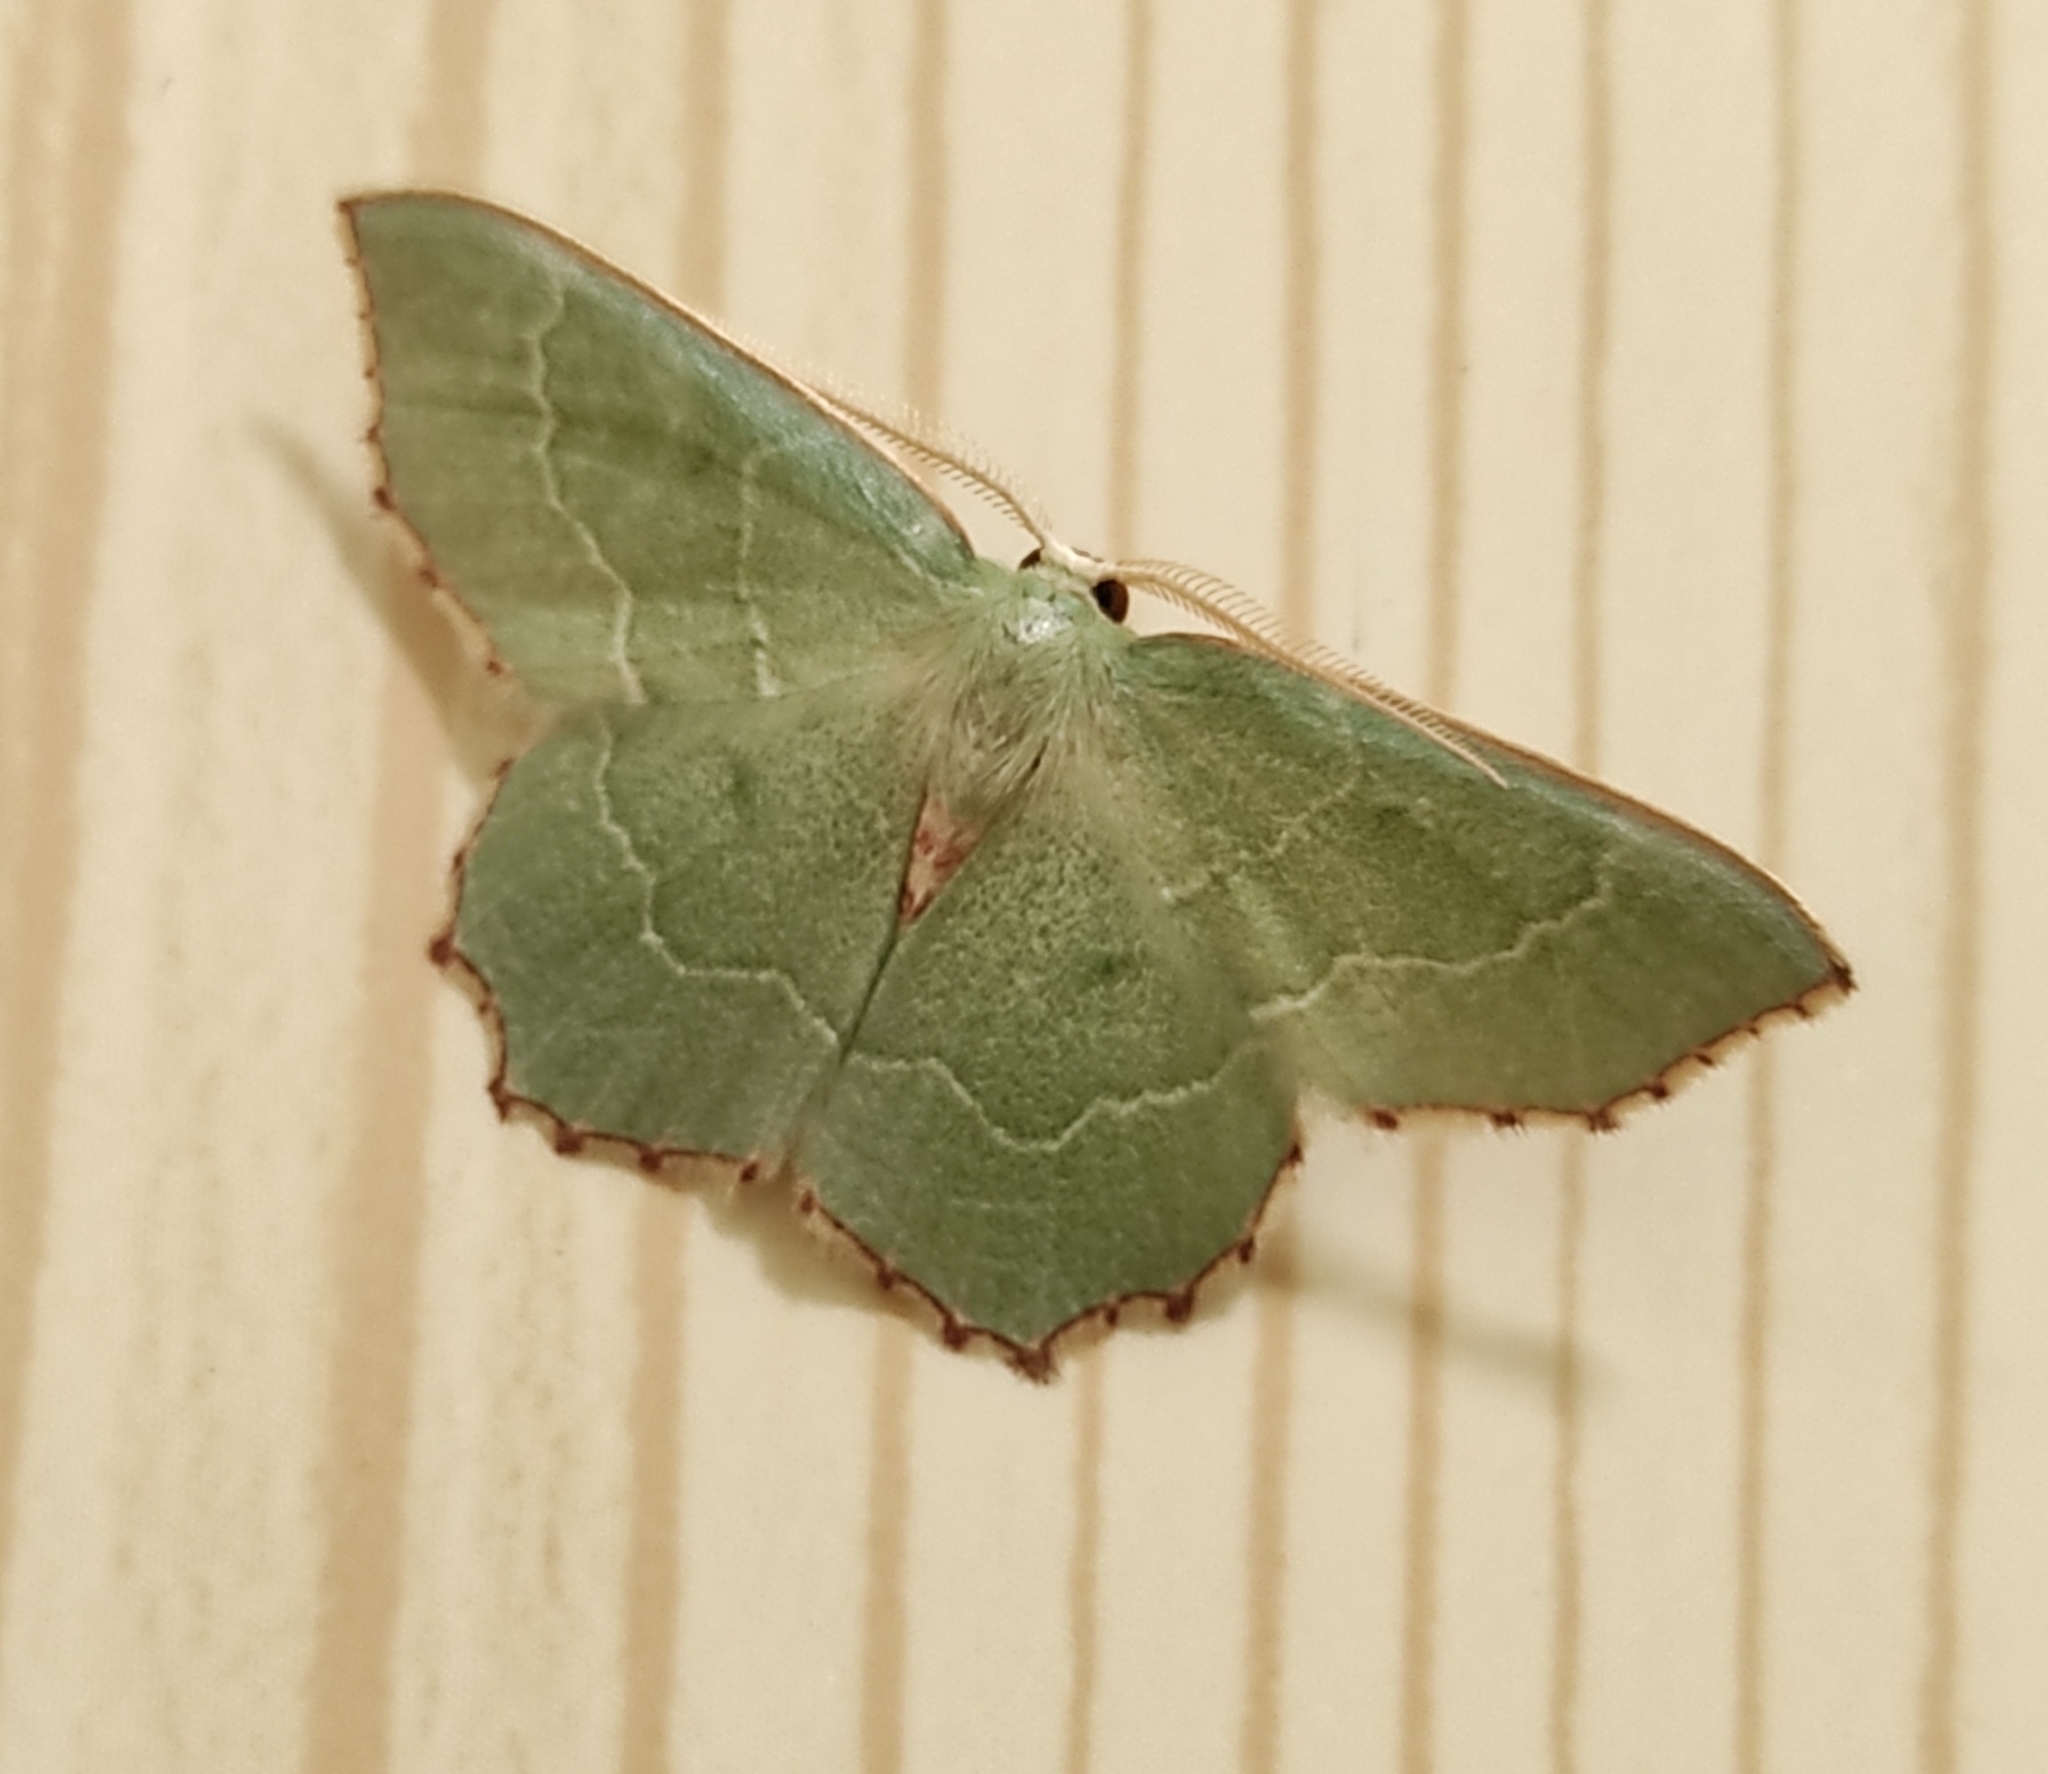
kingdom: Animalia
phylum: Arthropoda
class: Insecta
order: Lepidoptera
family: Geometridae
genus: Hemithea
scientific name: Hemithea aestivaria
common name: Common emerald
